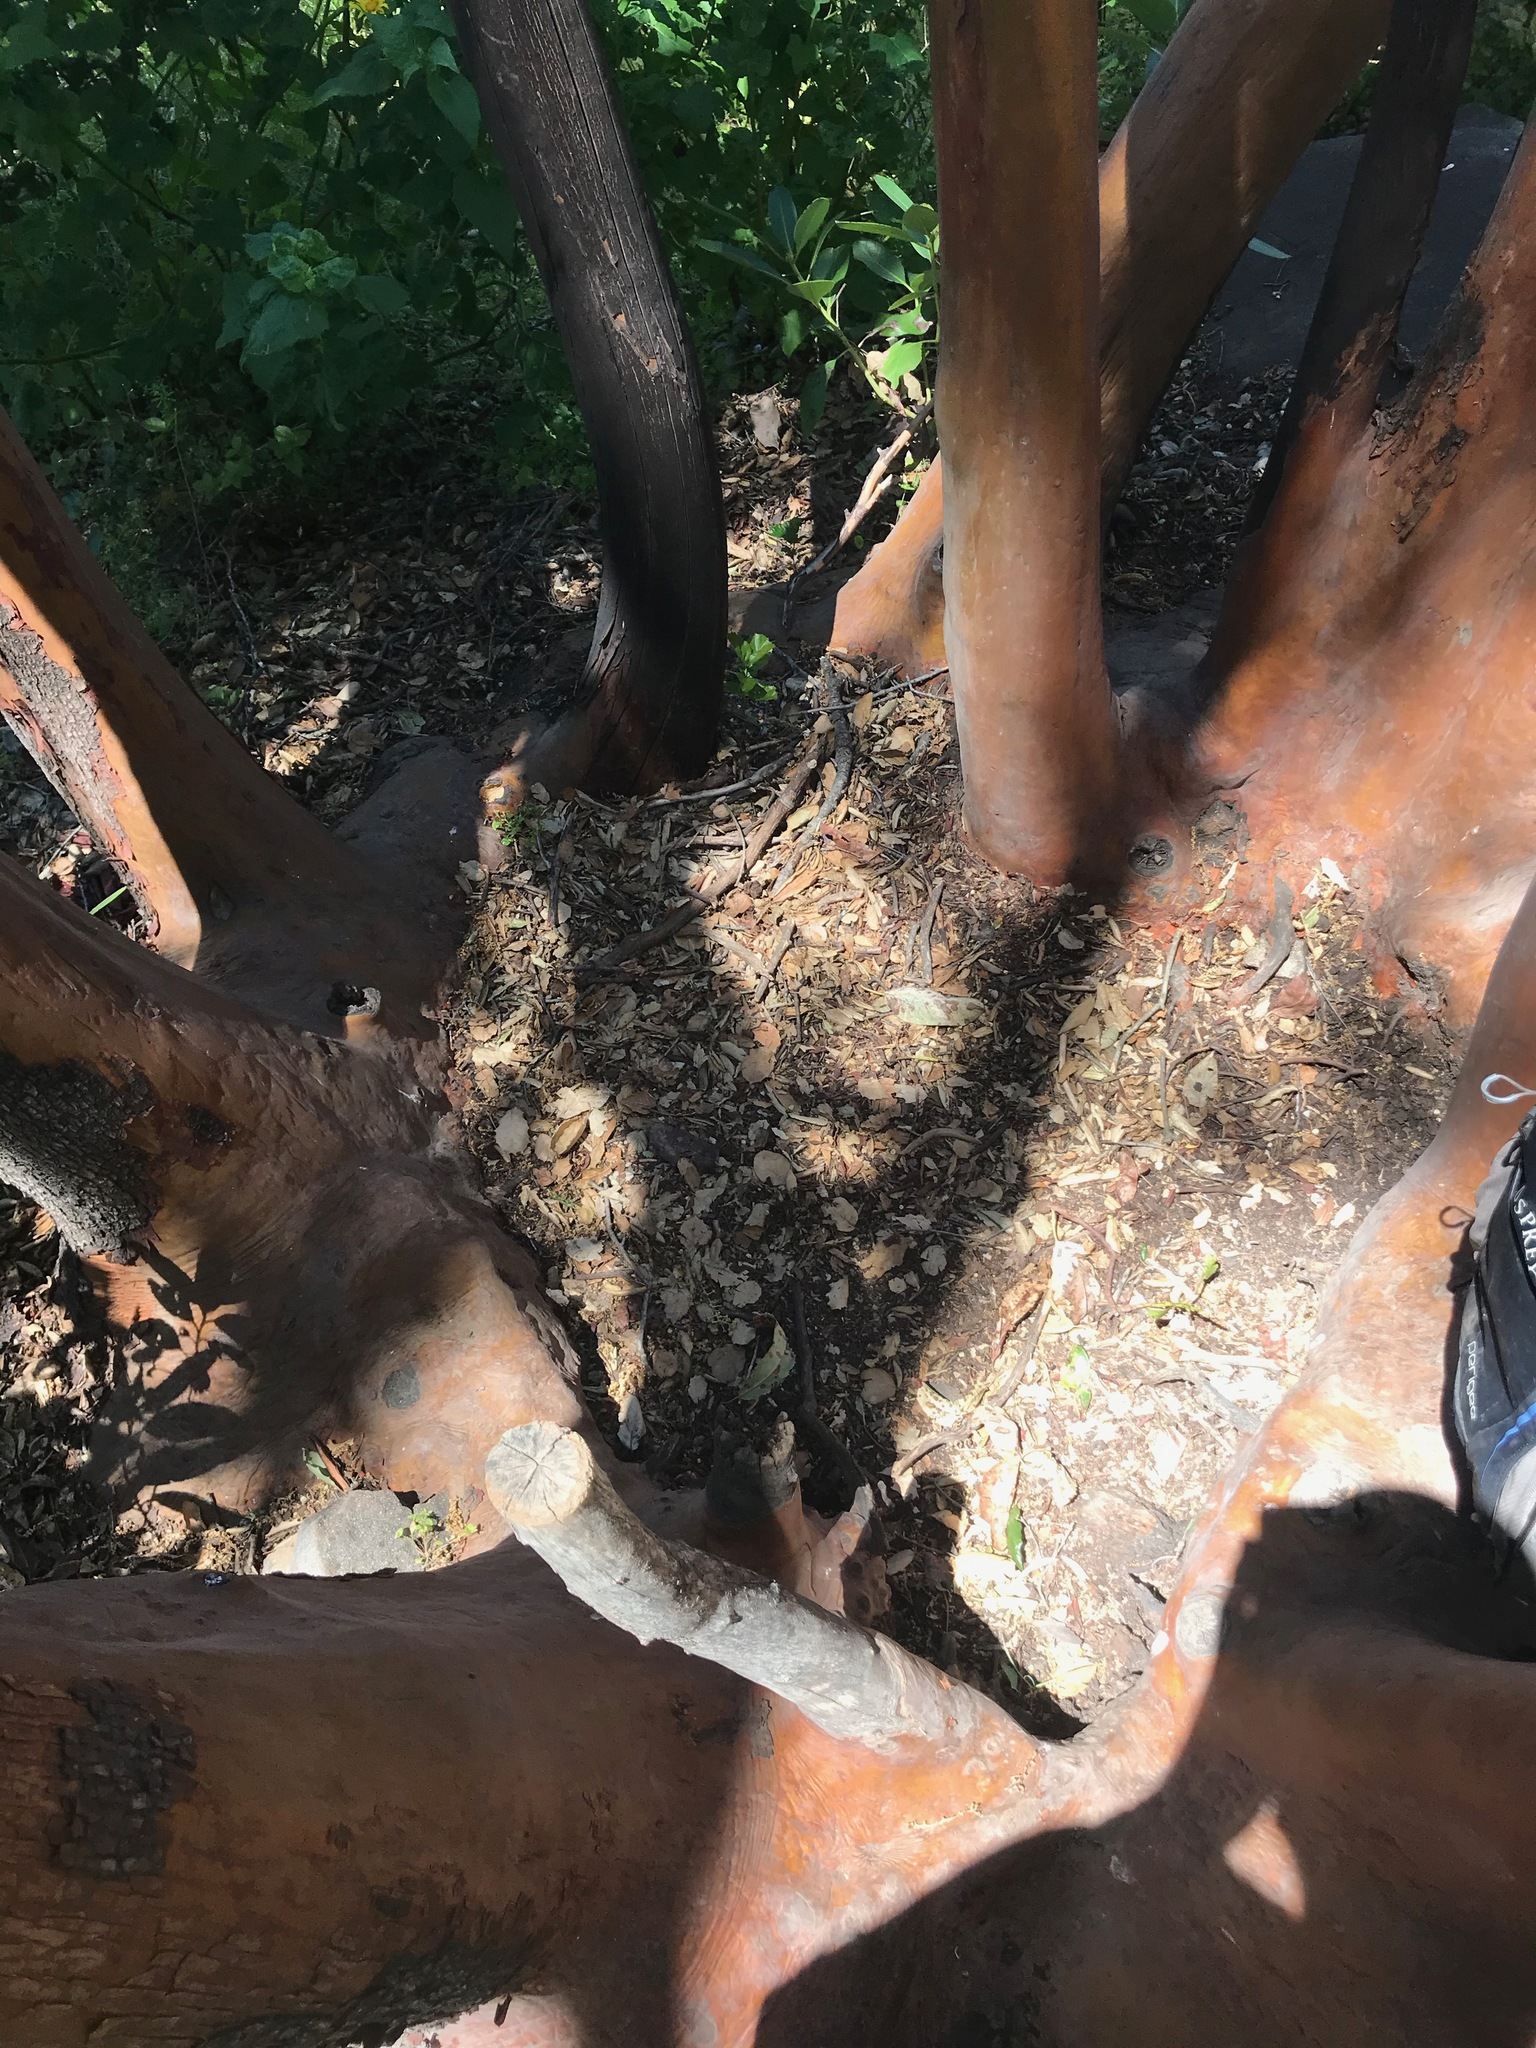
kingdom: Plantae
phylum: Tracheophyta
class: Magnoliopsida
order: Ericales
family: Ericaceae
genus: Arbutus
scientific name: Arbutus menziesii
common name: Pacific madrone
